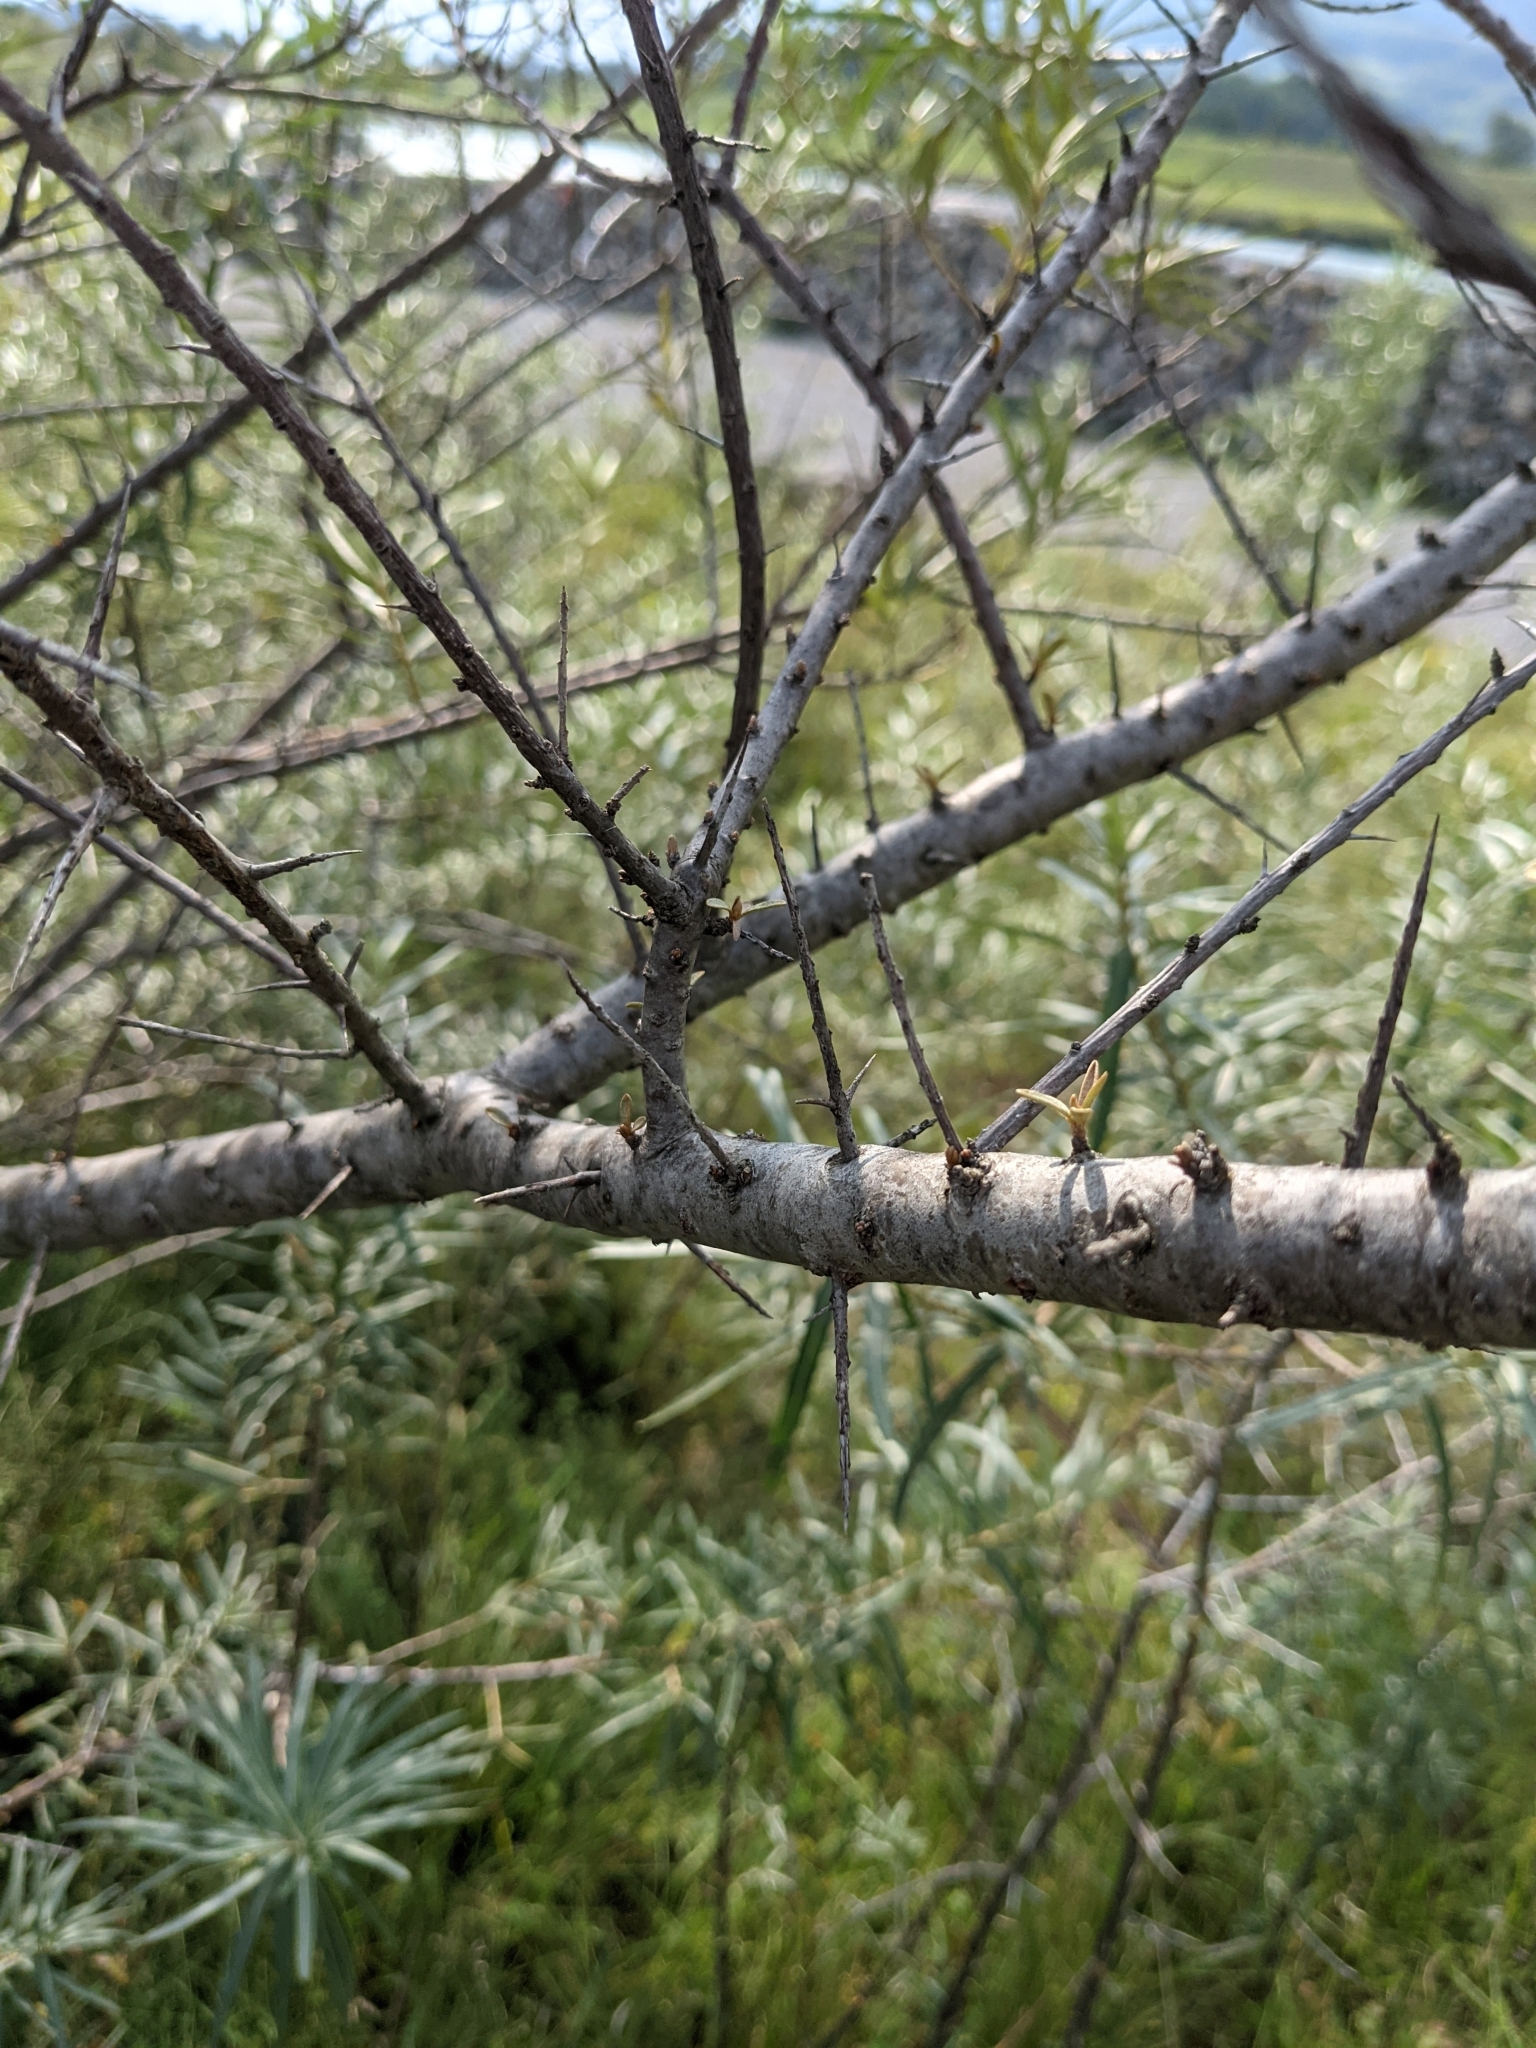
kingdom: Plantae
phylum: Tracheophyta
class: Magnoliopsida
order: Rosales
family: Elaeagnaceae
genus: Hippophae
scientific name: Hippophae rhamnoides
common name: Sea-buckthorn
